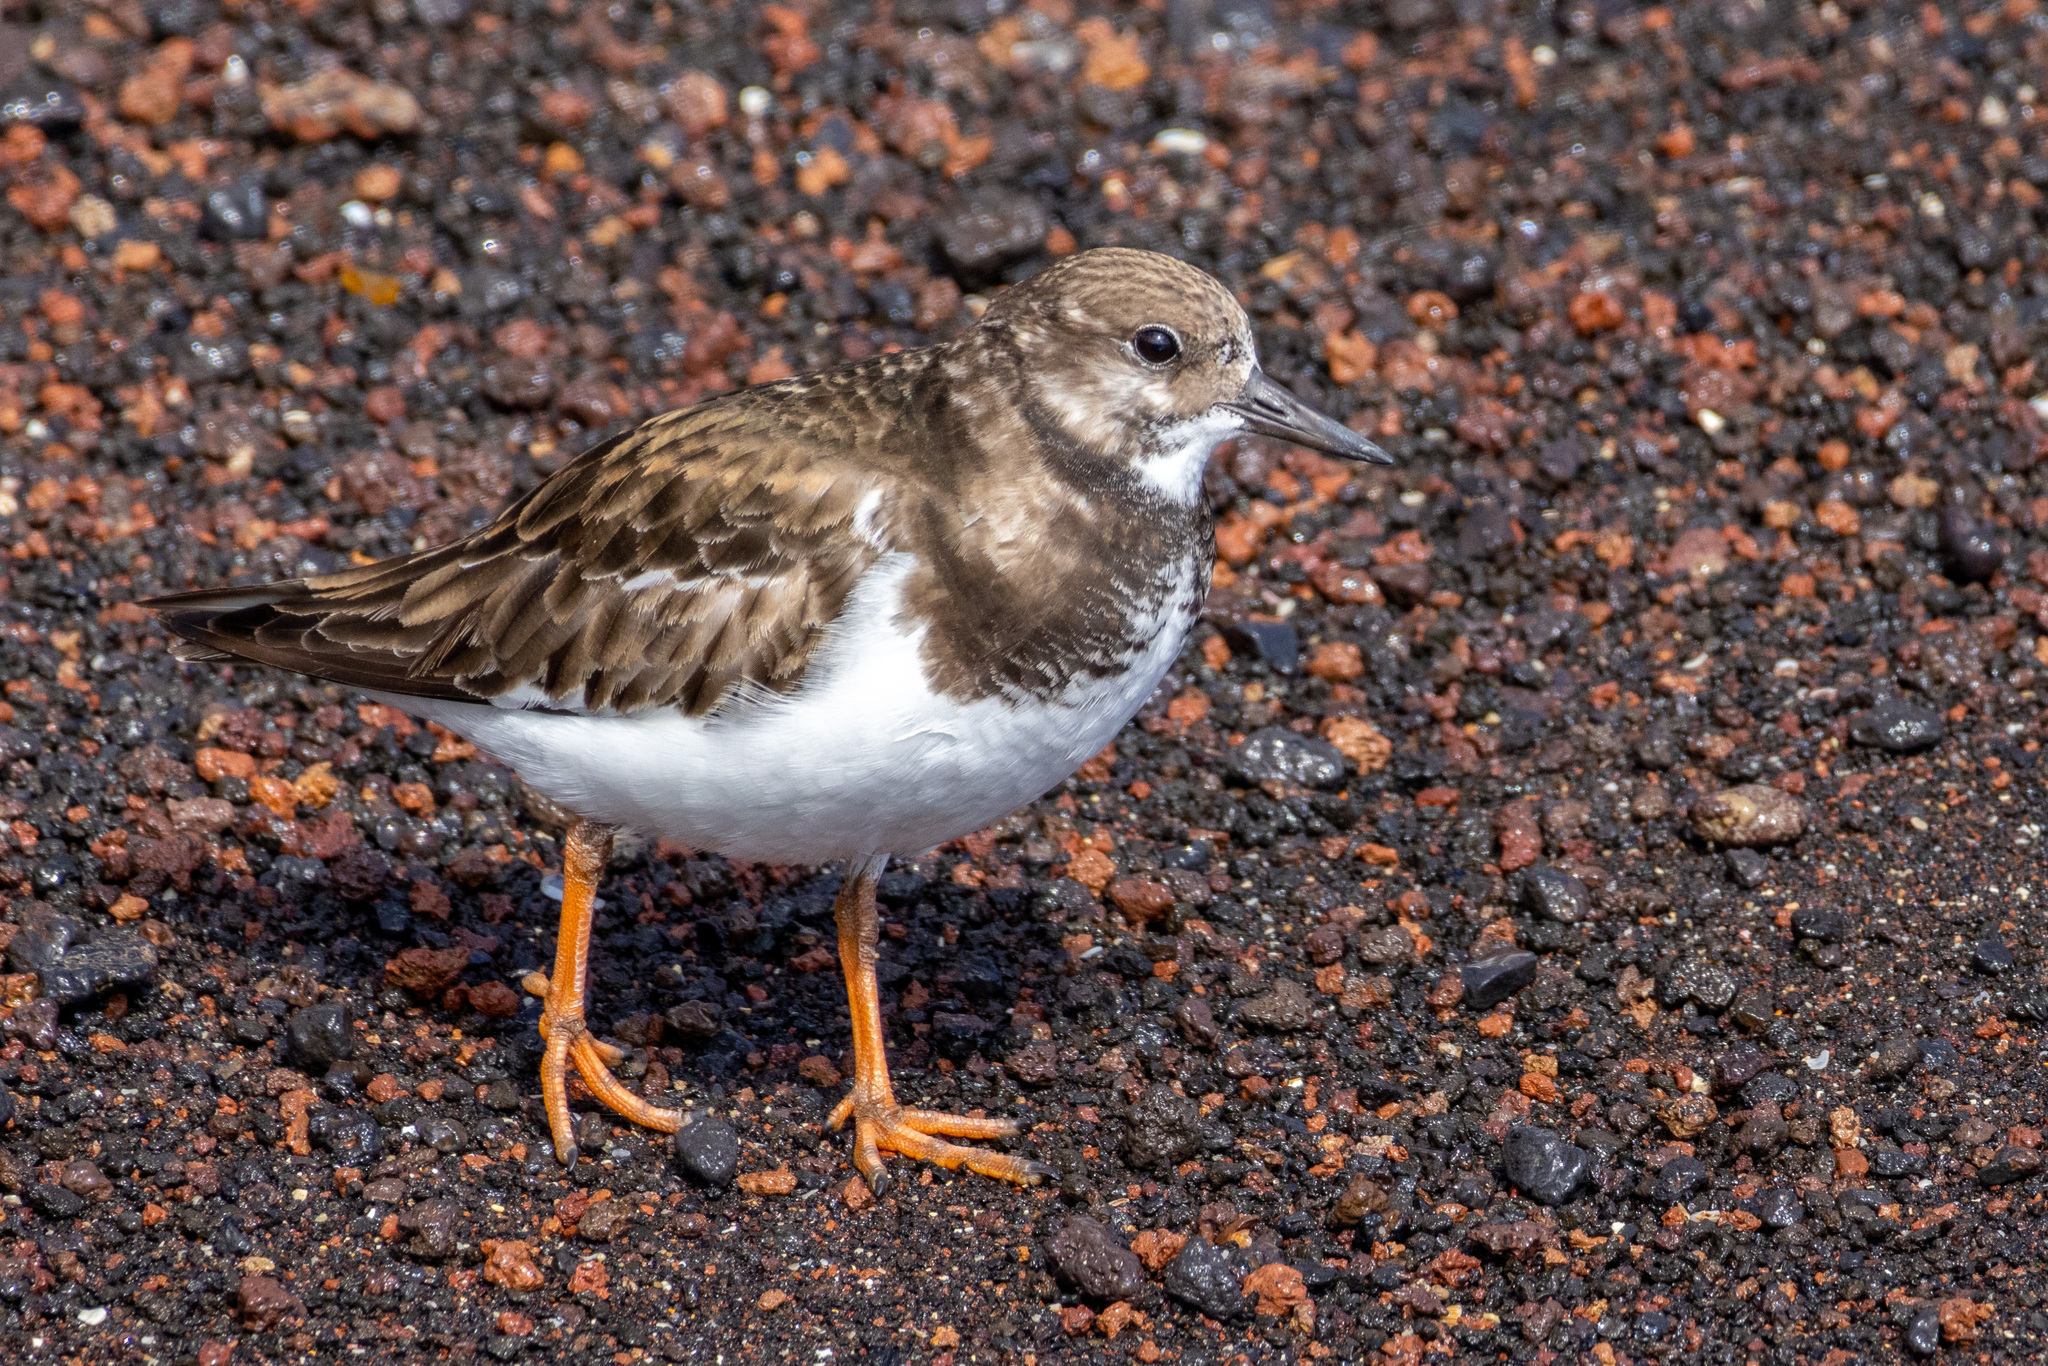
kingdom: Animalia
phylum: Chordata
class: Aves
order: Charadriiformes
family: Scolopacidae
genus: Arenaria
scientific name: Arenaria interpres
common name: Ruddy turnstone
